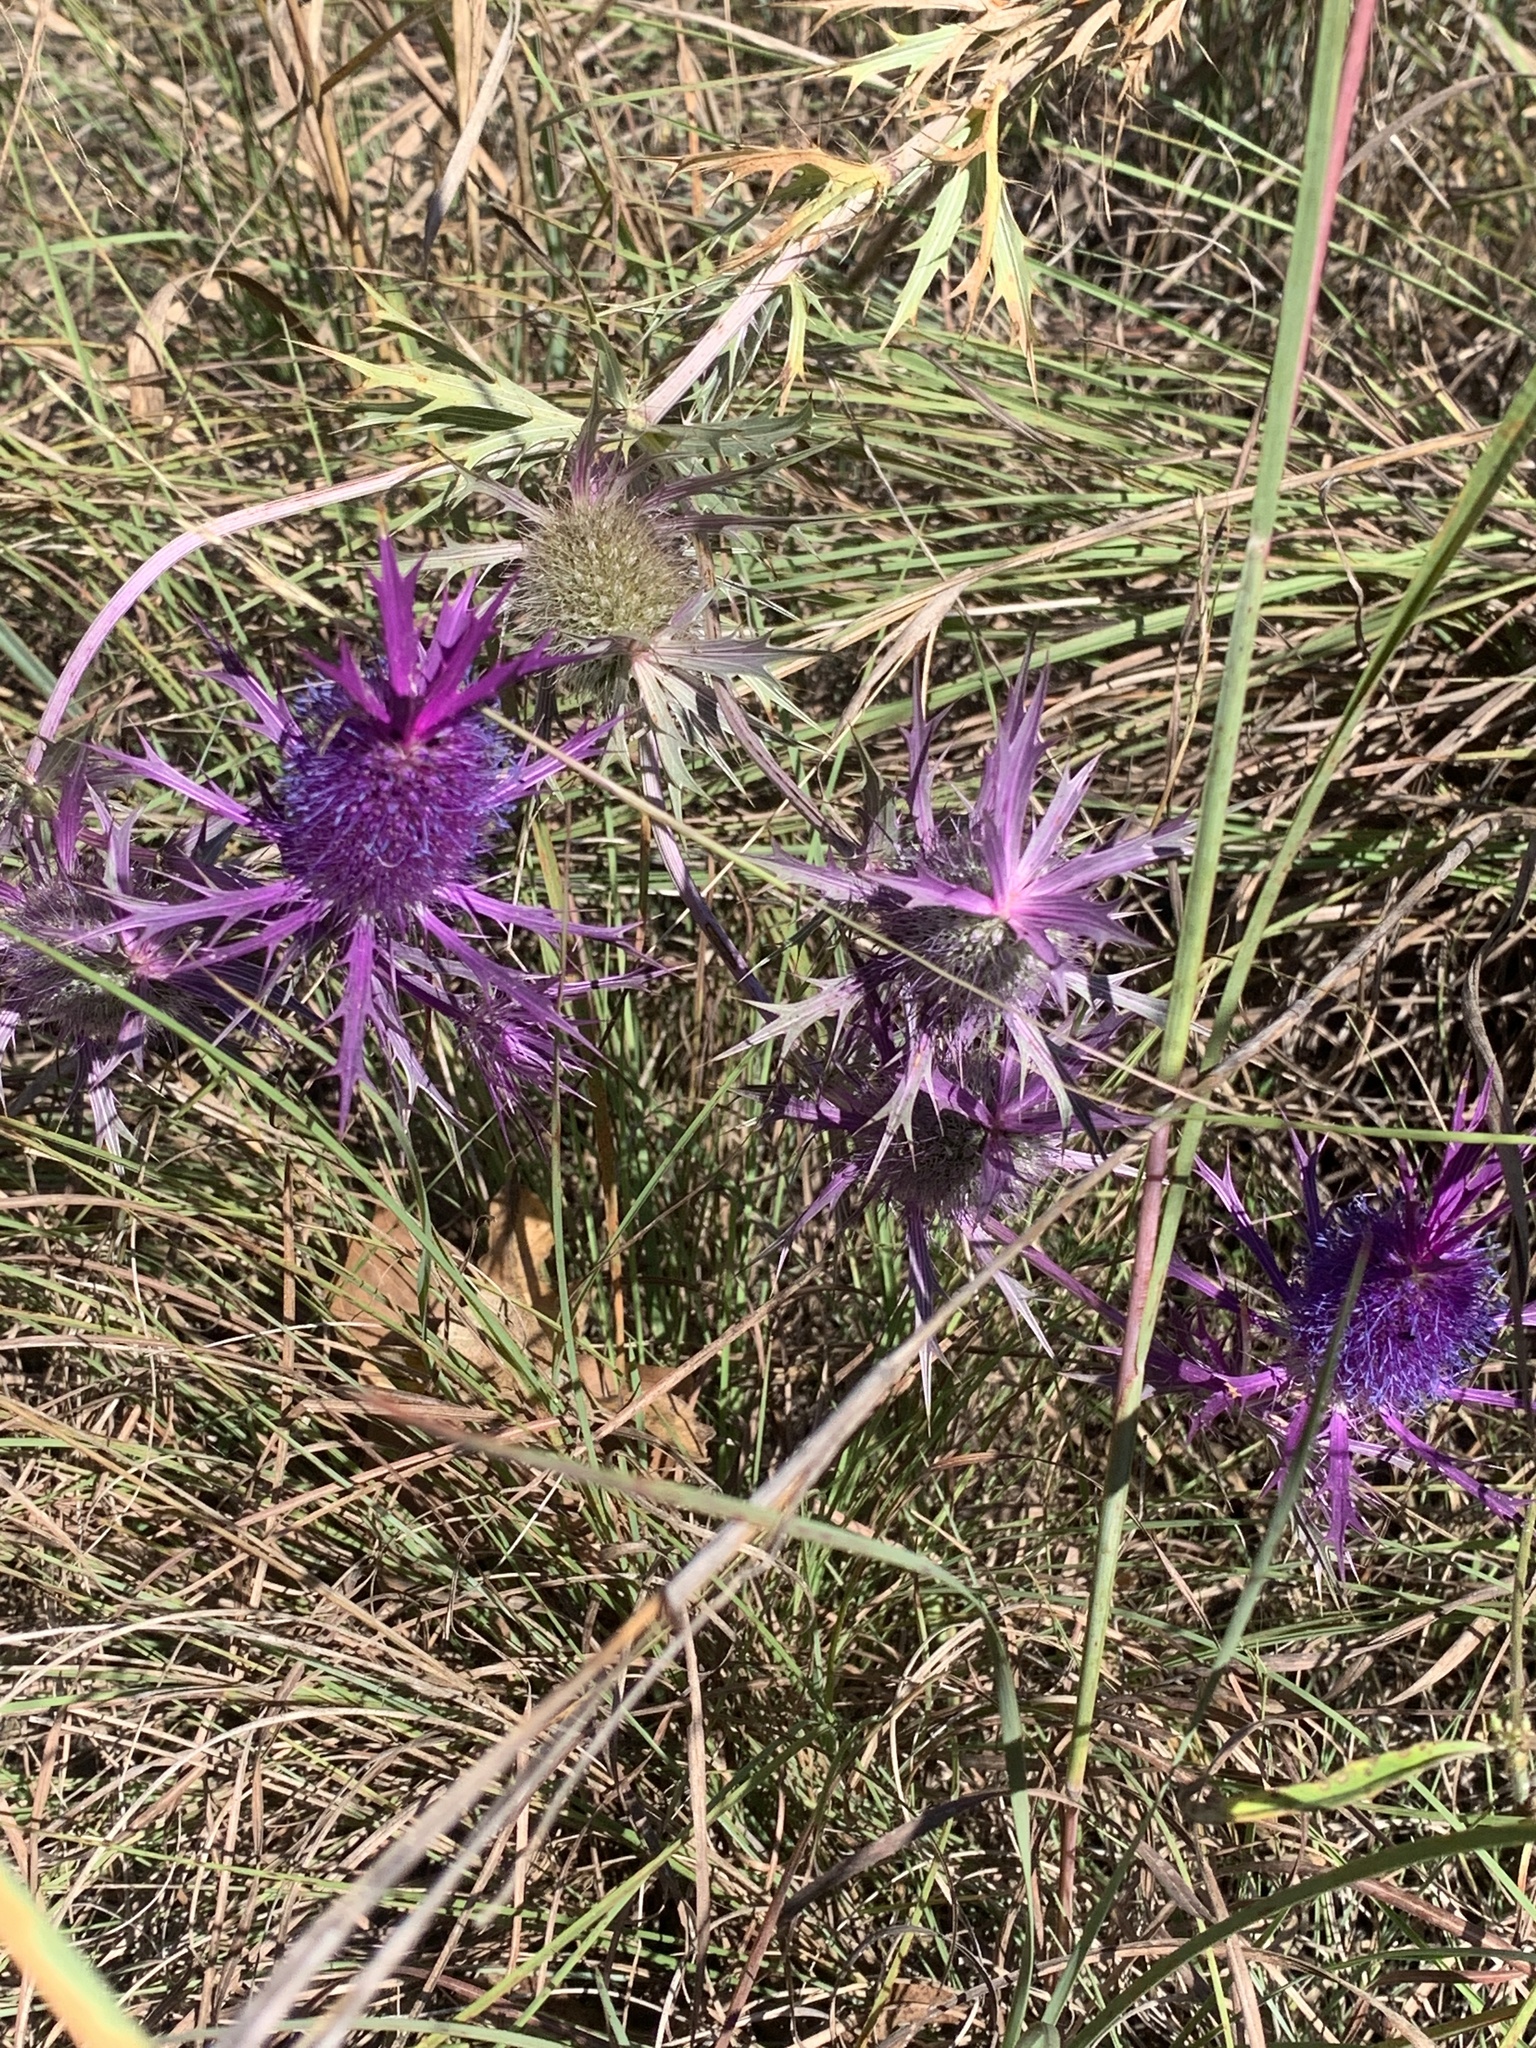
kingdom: Plantae
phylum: Tracheophyta
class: Magnoliopsida
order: Apiales
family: Apiaceae
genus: Eryngium
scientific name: Eryngium leavenworthii
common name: Leavenworth's eryngo
